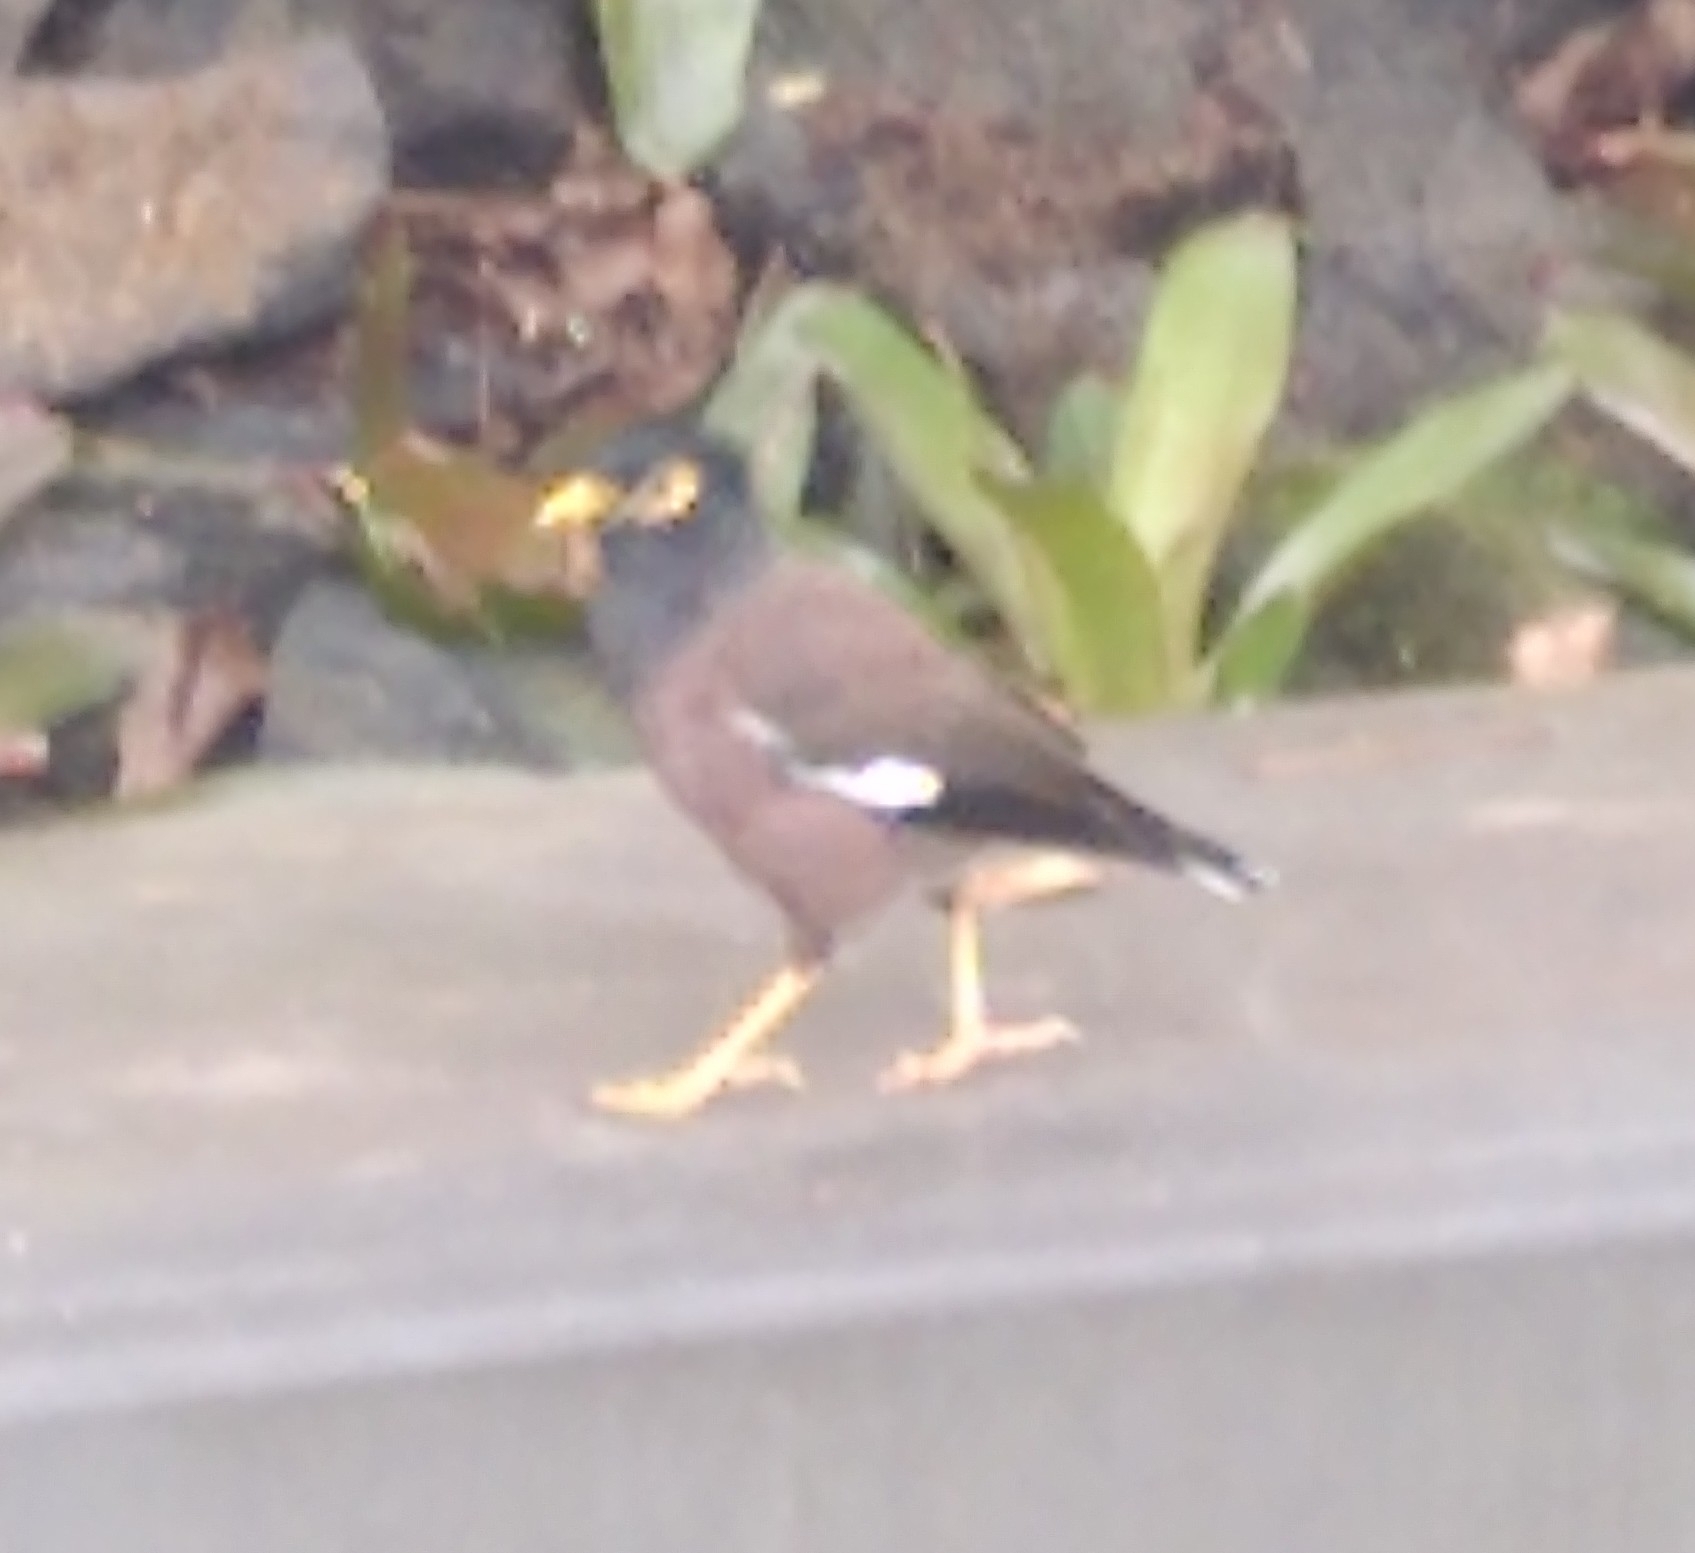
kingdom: Animalia
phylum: Chordata
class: Aves
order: Passeriformes
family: Sturnidae
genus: Acridotheres
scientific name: Acridotheres tristis
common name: Common myna
